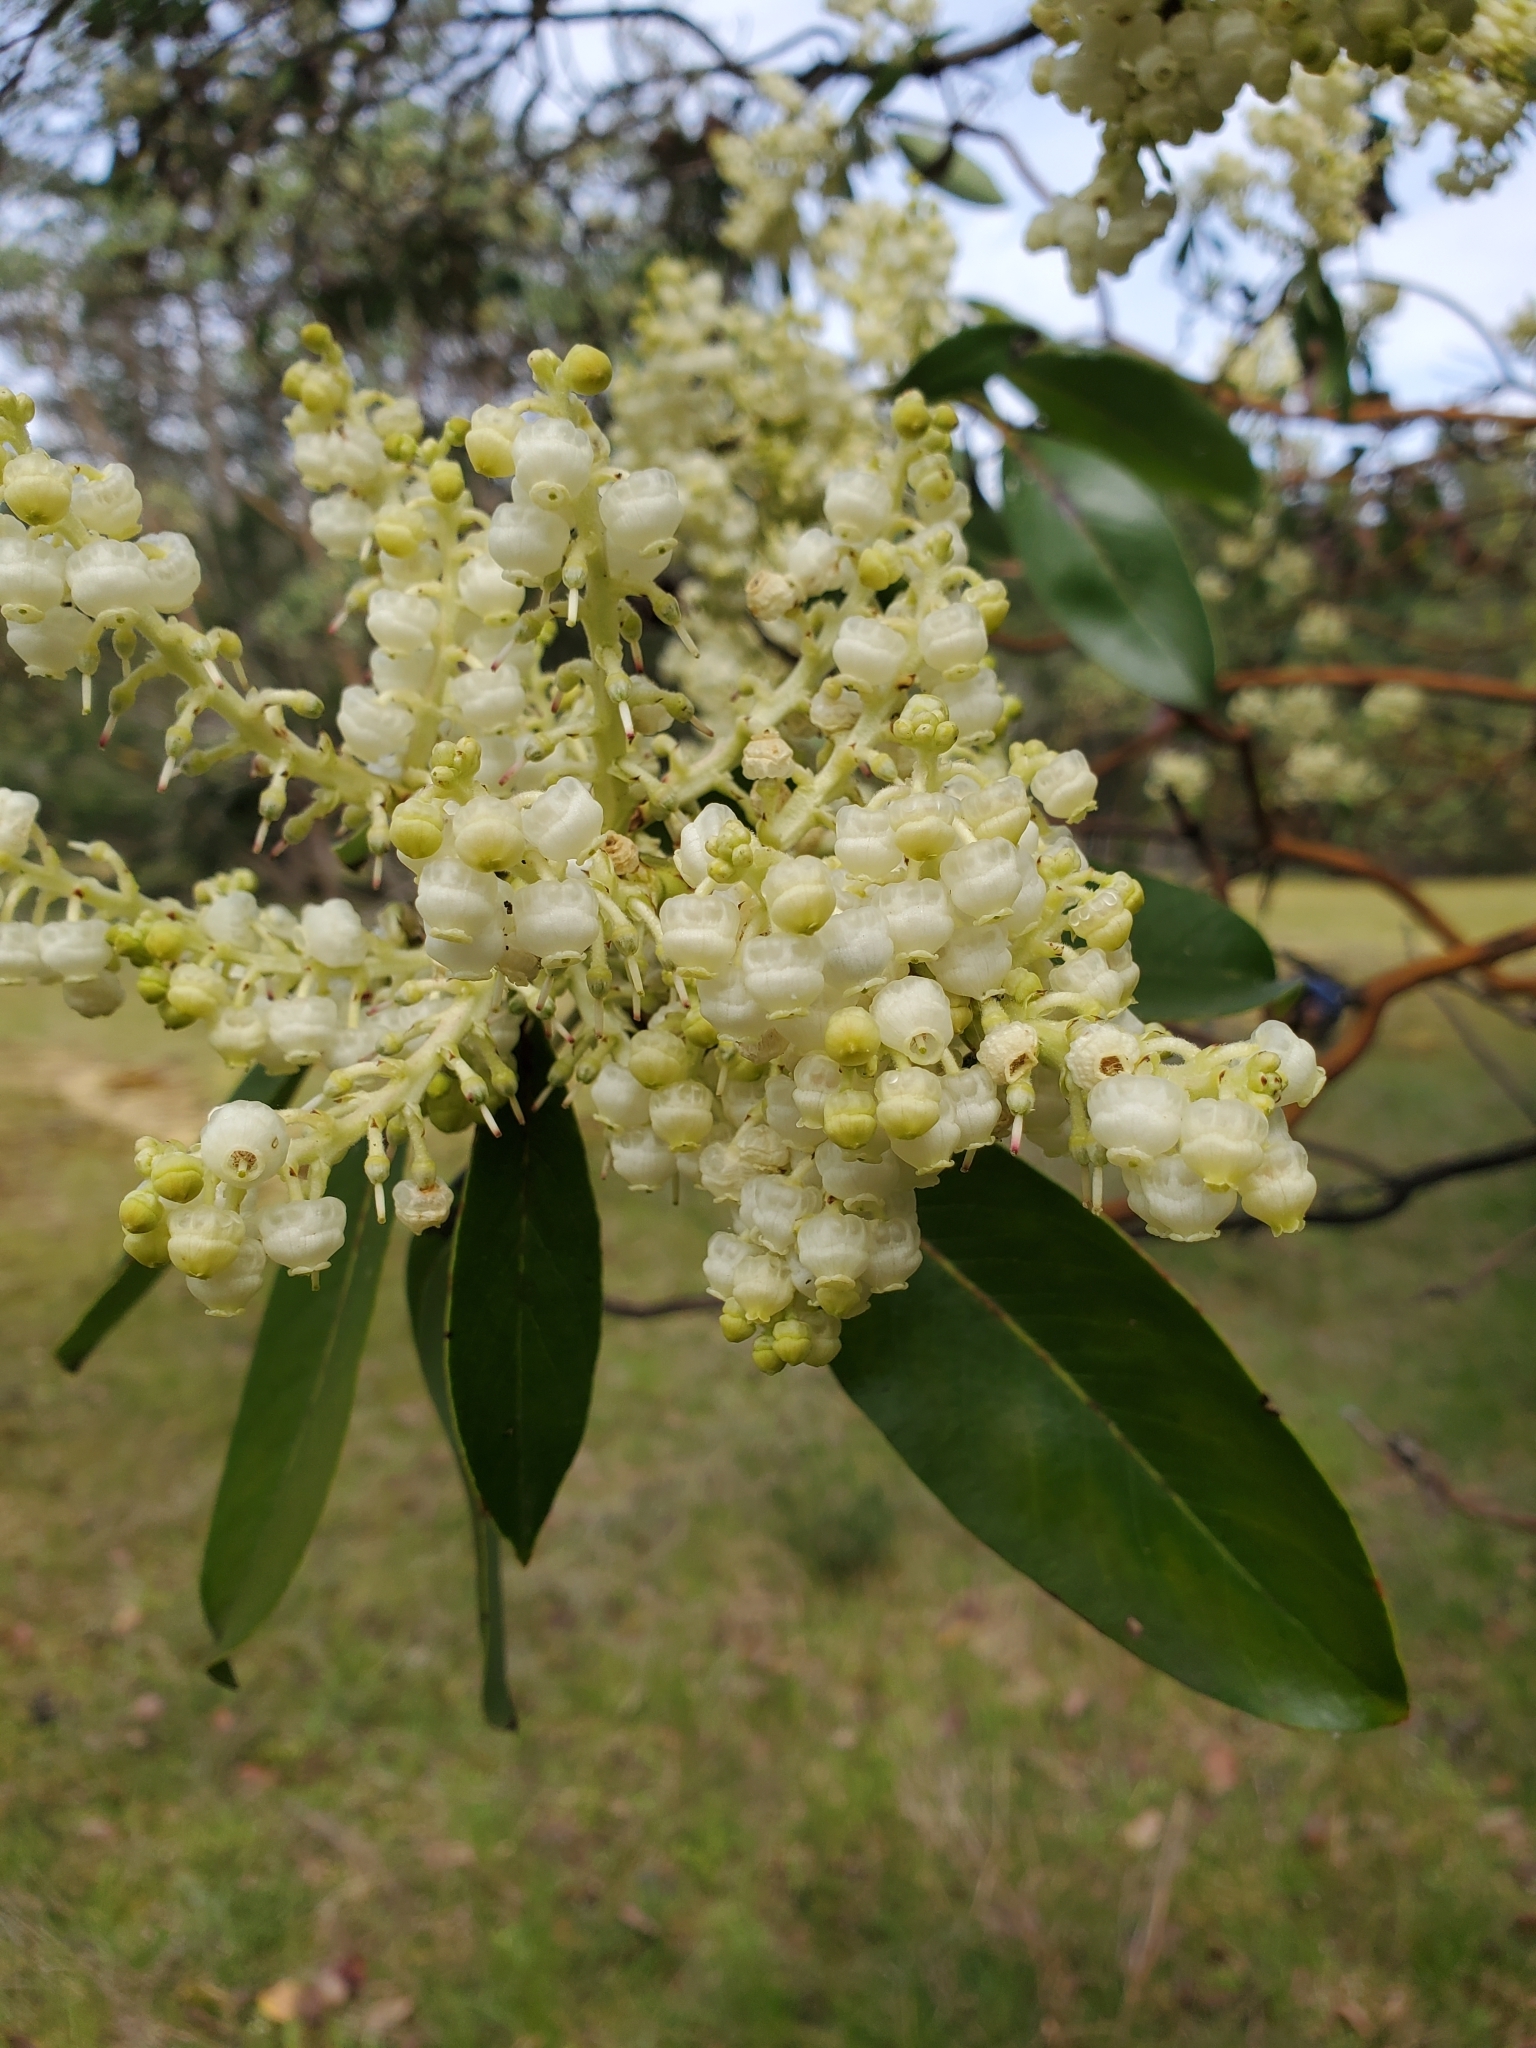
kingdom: Plantae
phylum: Tracheophyta
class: Magnoliopsida
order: Ericales
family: Ericaceae
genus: Arbutus
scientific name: Arbutus menziesii
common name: Pacific madrone
